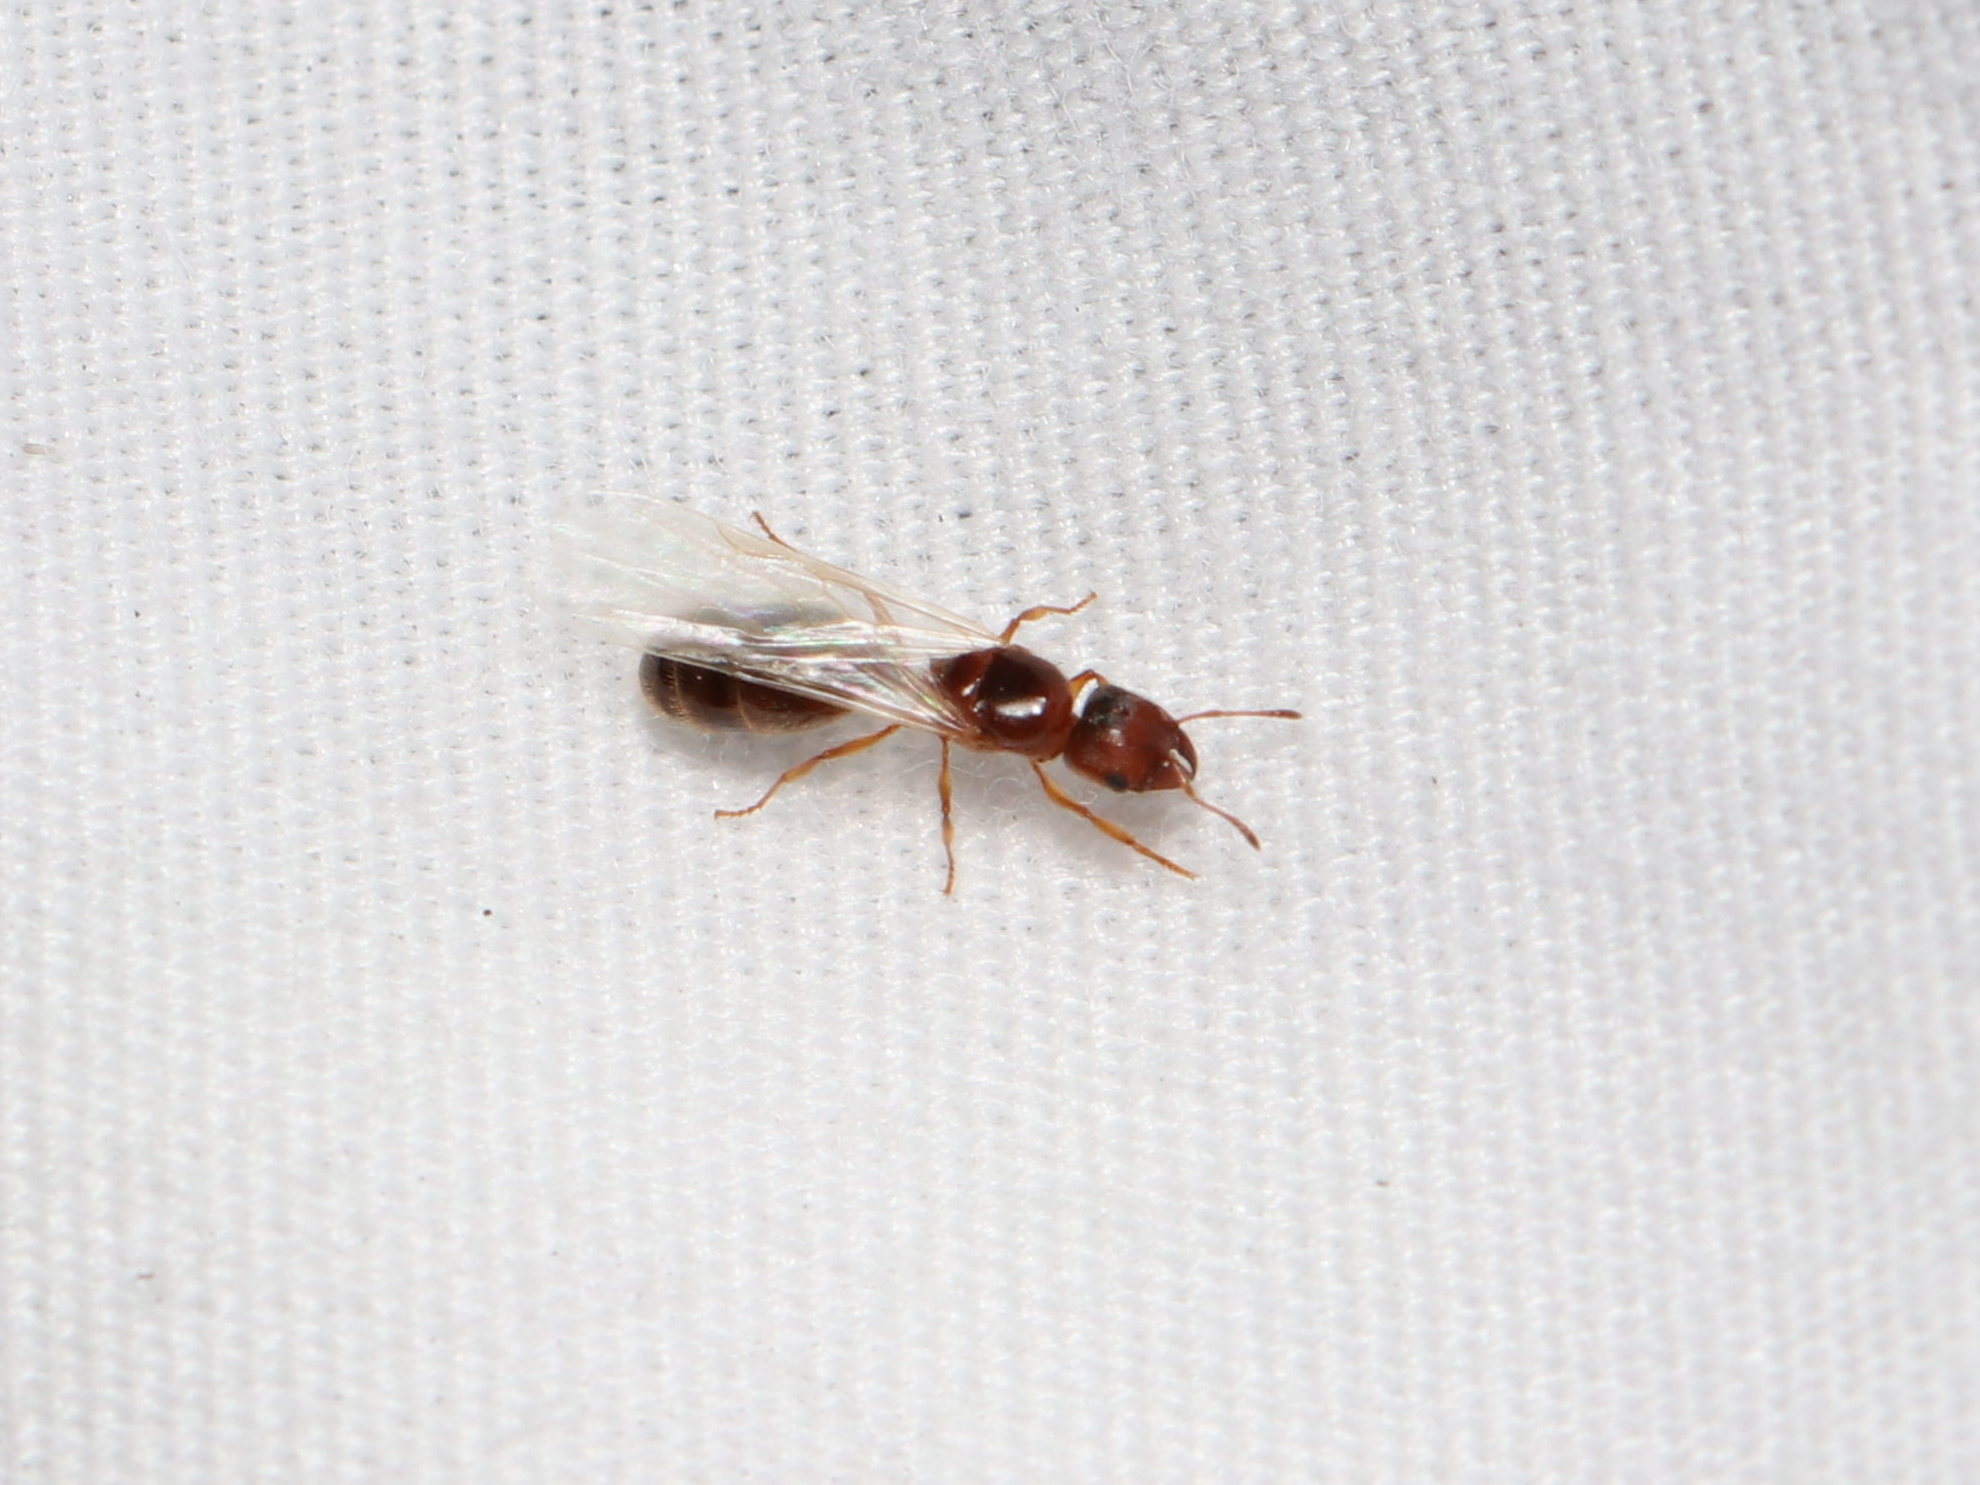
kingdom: Animalia
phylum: Arthropoda
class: Insecta
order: Hymenoptera
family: Formicidae
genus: Pheidole
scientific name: Pheidole bicarinata
